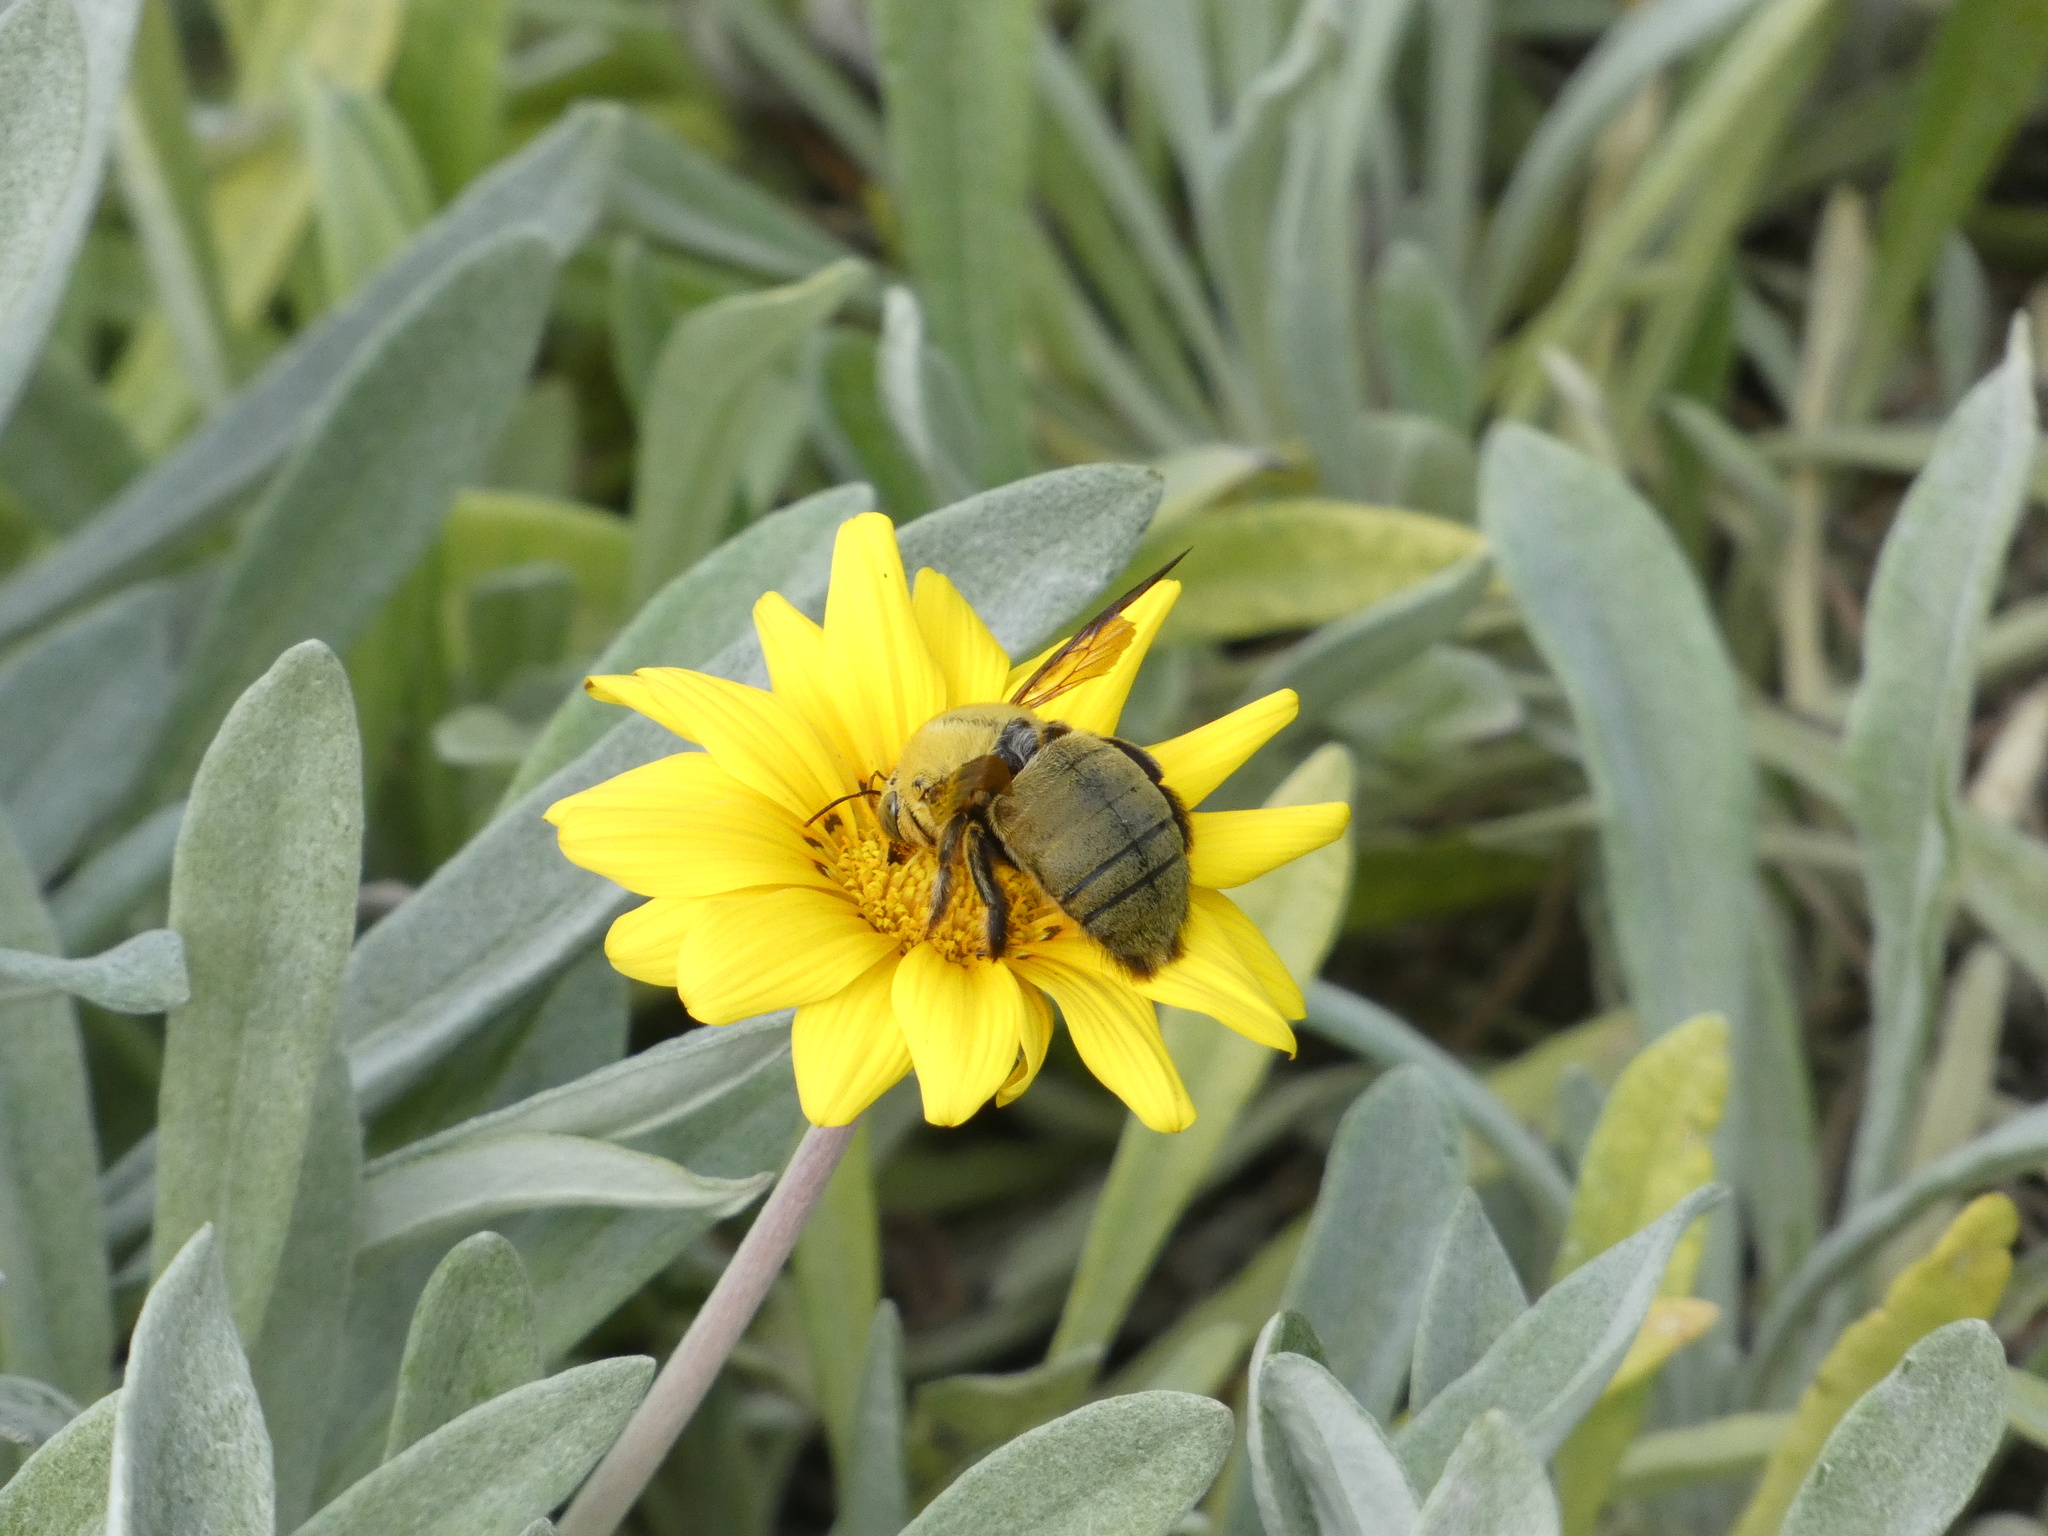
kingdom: Animalia
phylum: Arthropoda
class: Insecta
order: Hymenoptera
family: Apidae
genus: Xylocopa
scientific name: Xylocopa pubescens
